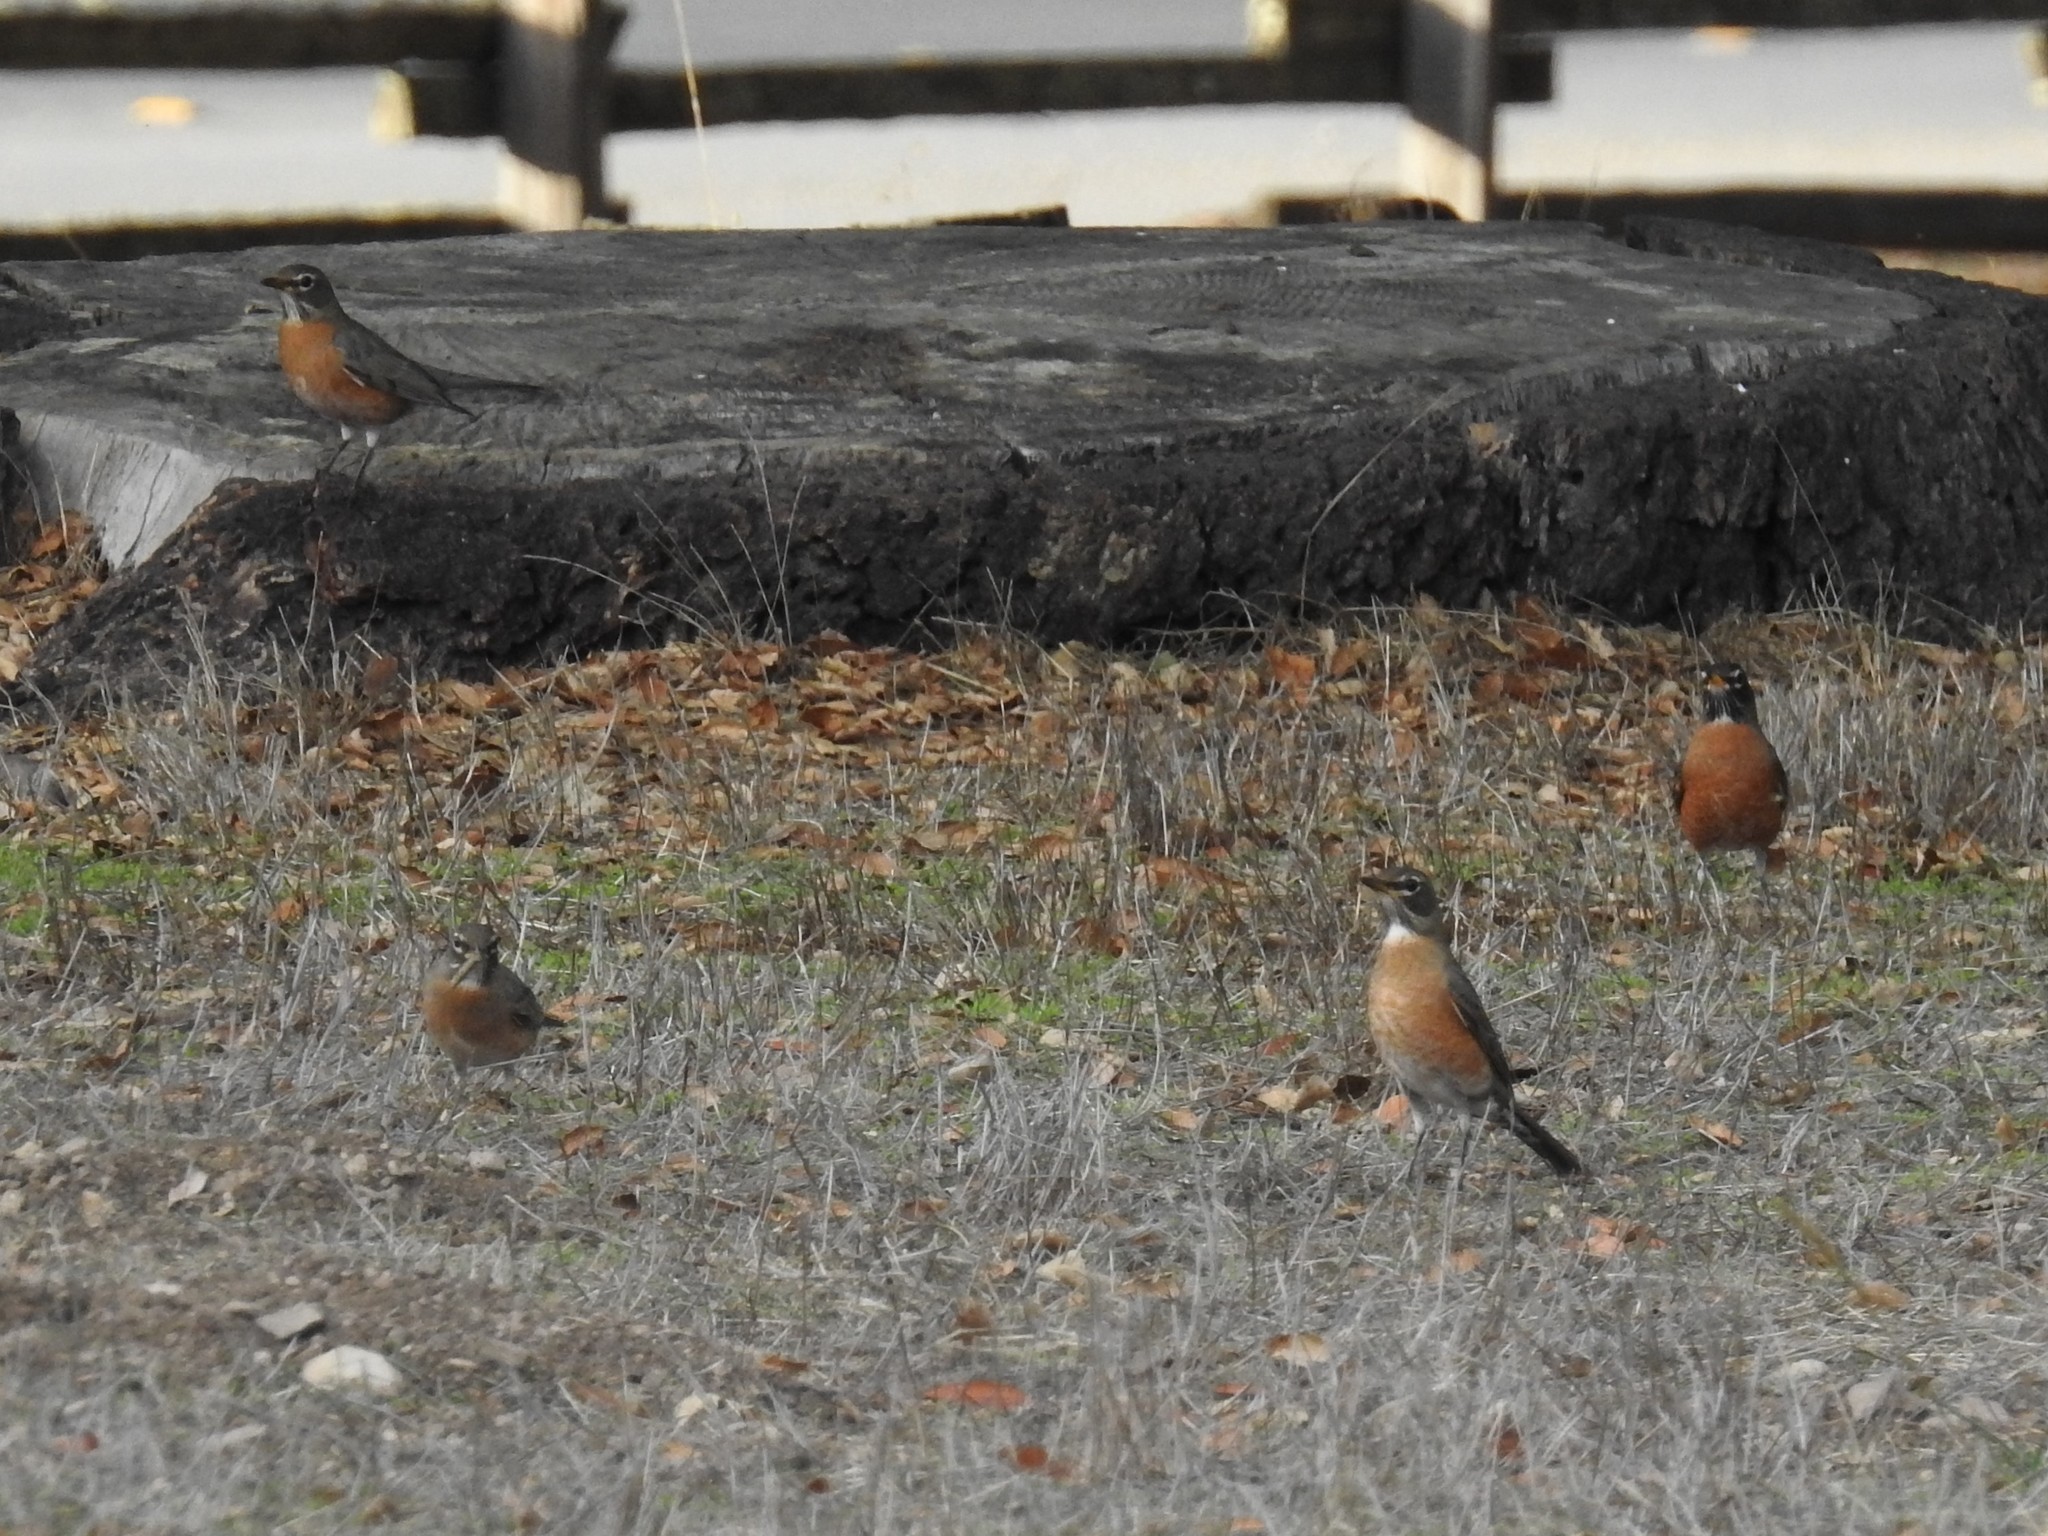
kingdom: Animalia
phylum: Chordata
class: Aves
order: Passeriformes
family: Turdidae
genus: Turdus
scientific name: Turdus migratorius
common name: American robin
